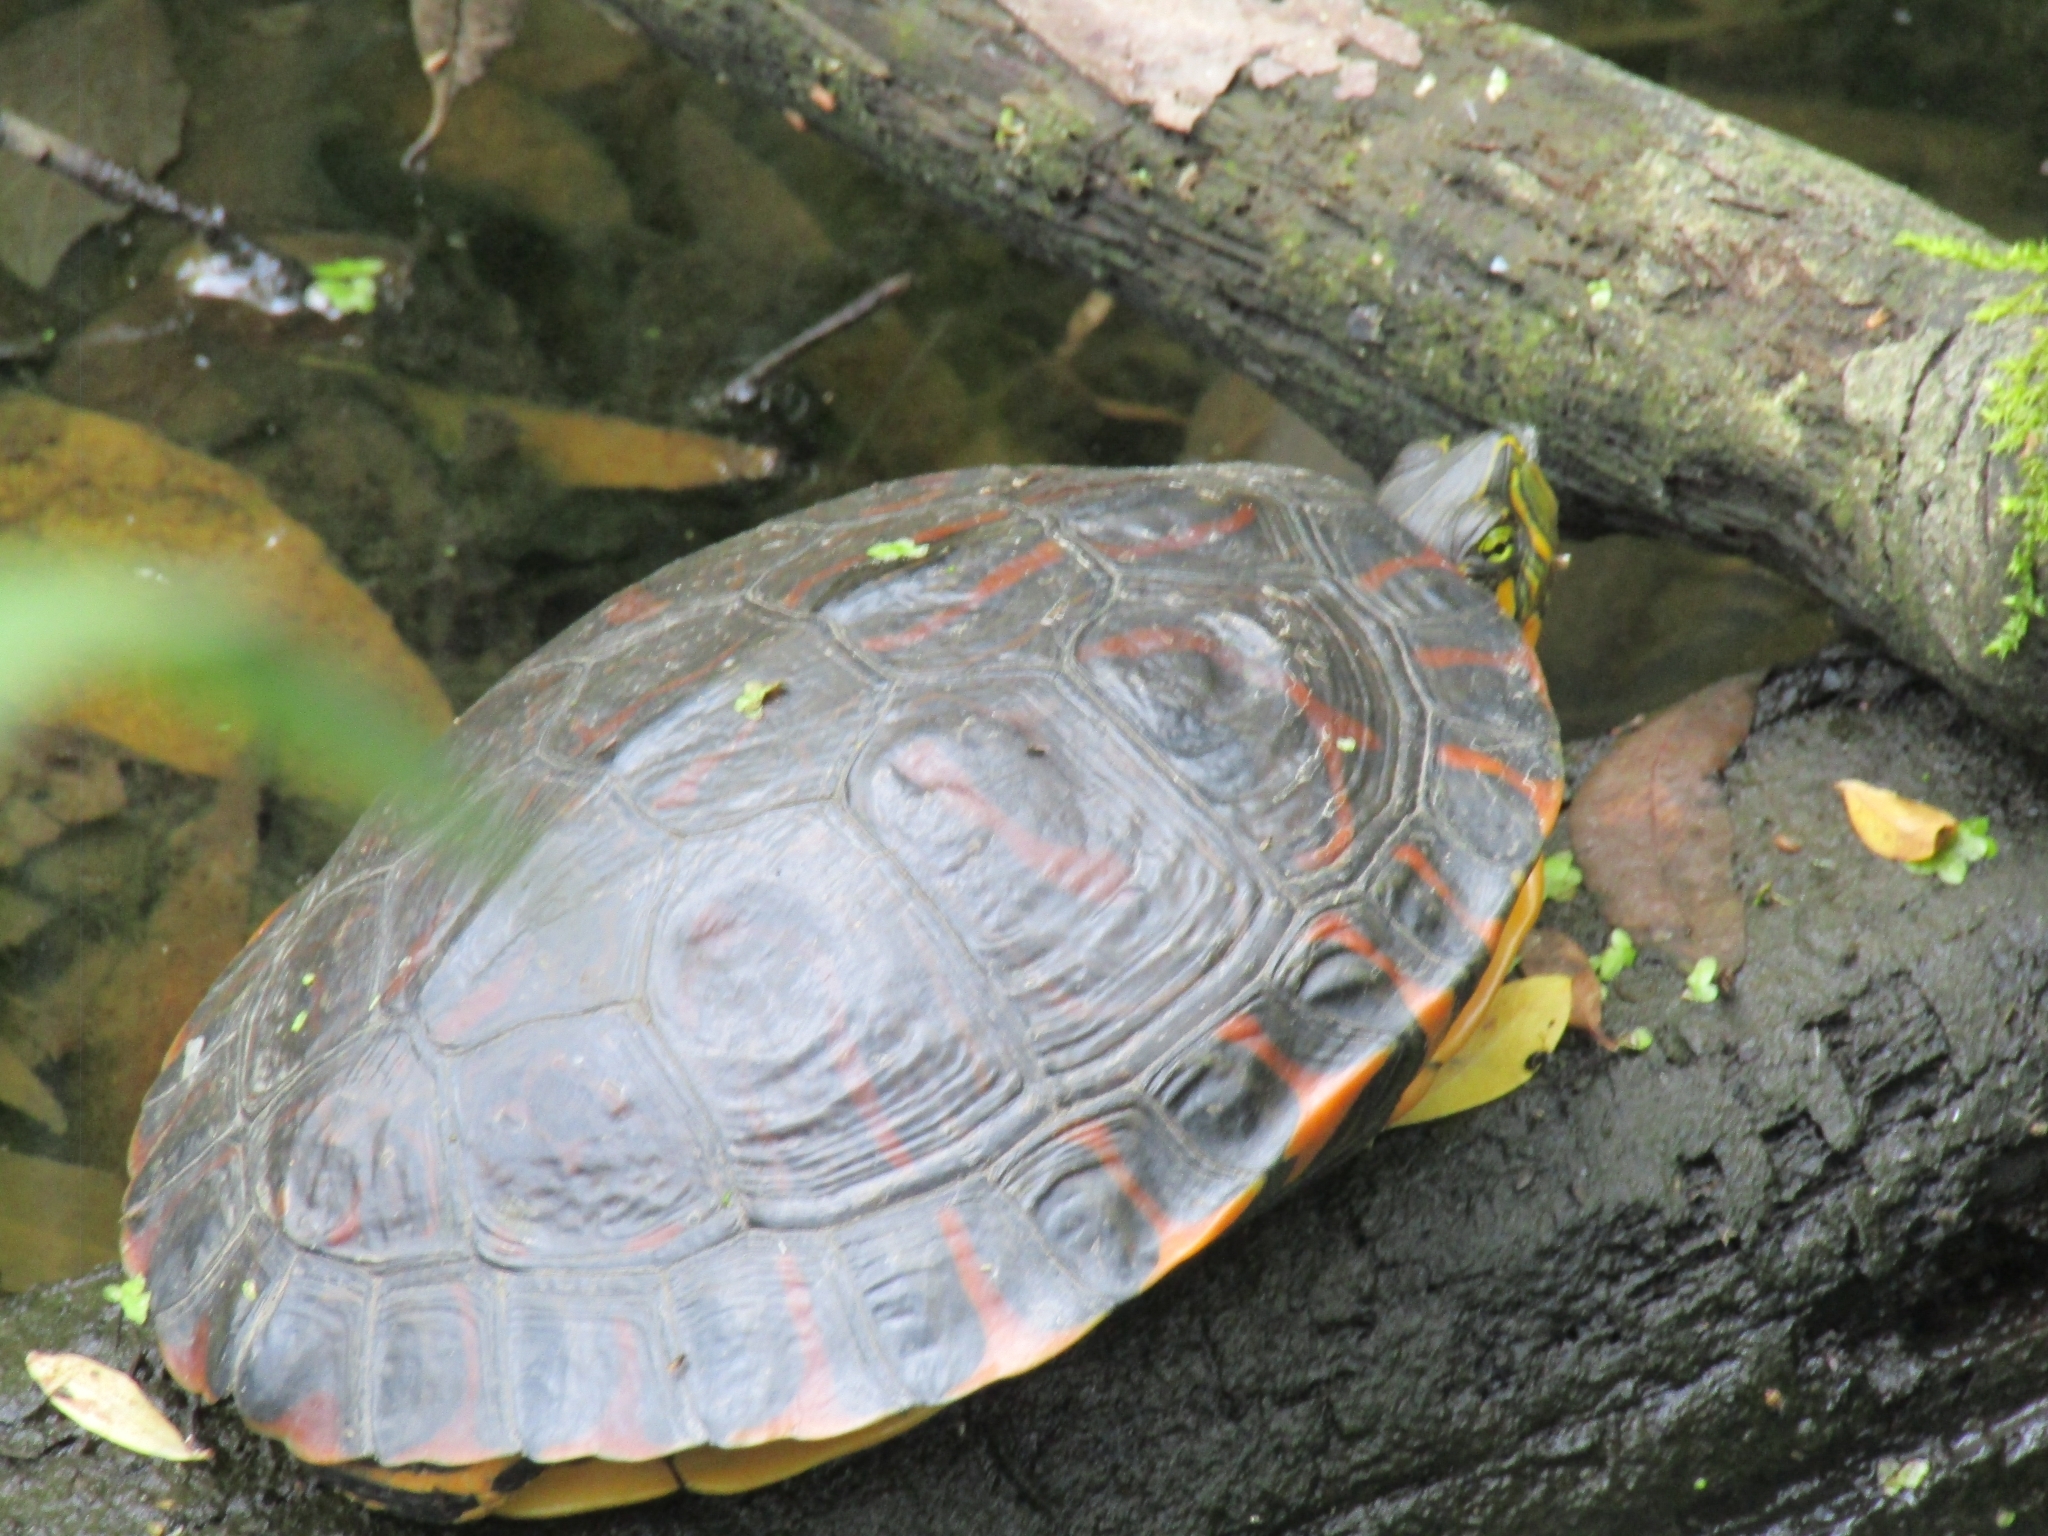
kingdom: Animalia
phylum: Chordata
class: Testudines
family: Emydidae
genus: Trachemys
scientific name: Trachemys dorbigni
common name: Black-bellied slider
